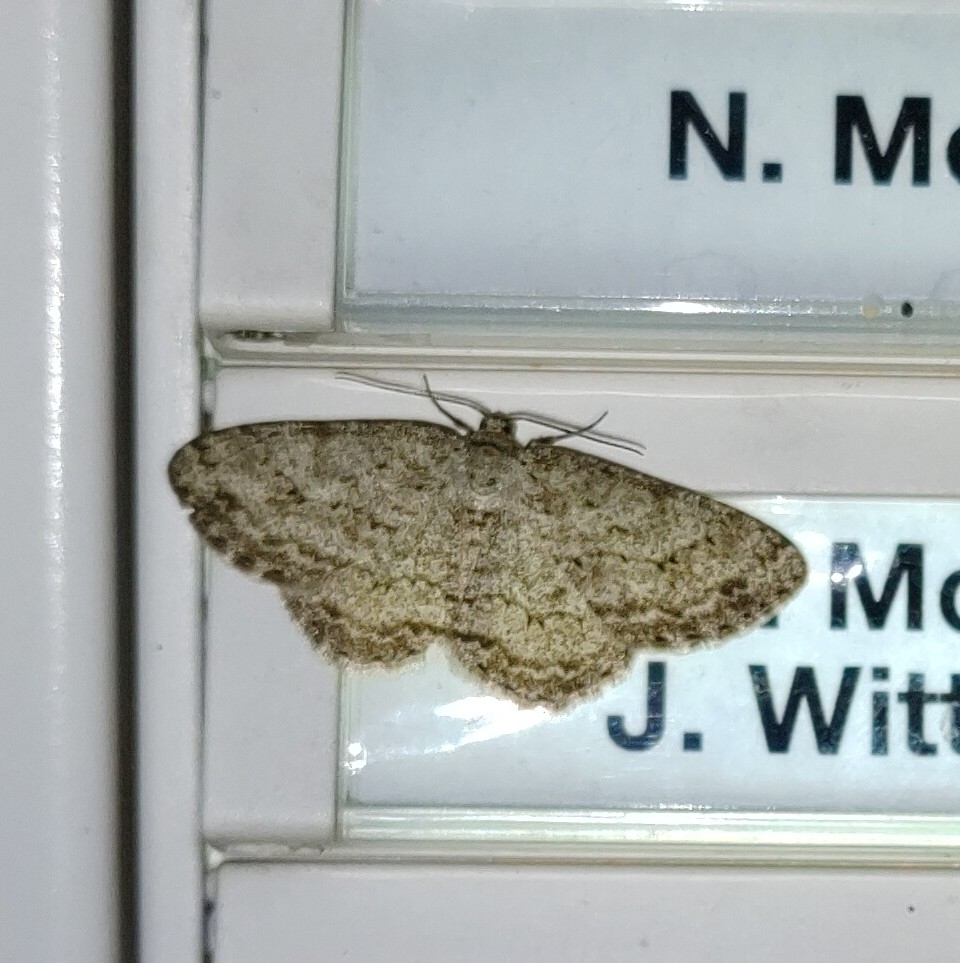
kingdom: Animalia
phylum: Arthropoda
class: Insecta
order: Lepidoptera
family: Geometridae
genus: Ectropis
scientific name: Ectropis crepuscularia
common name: Engrailed
